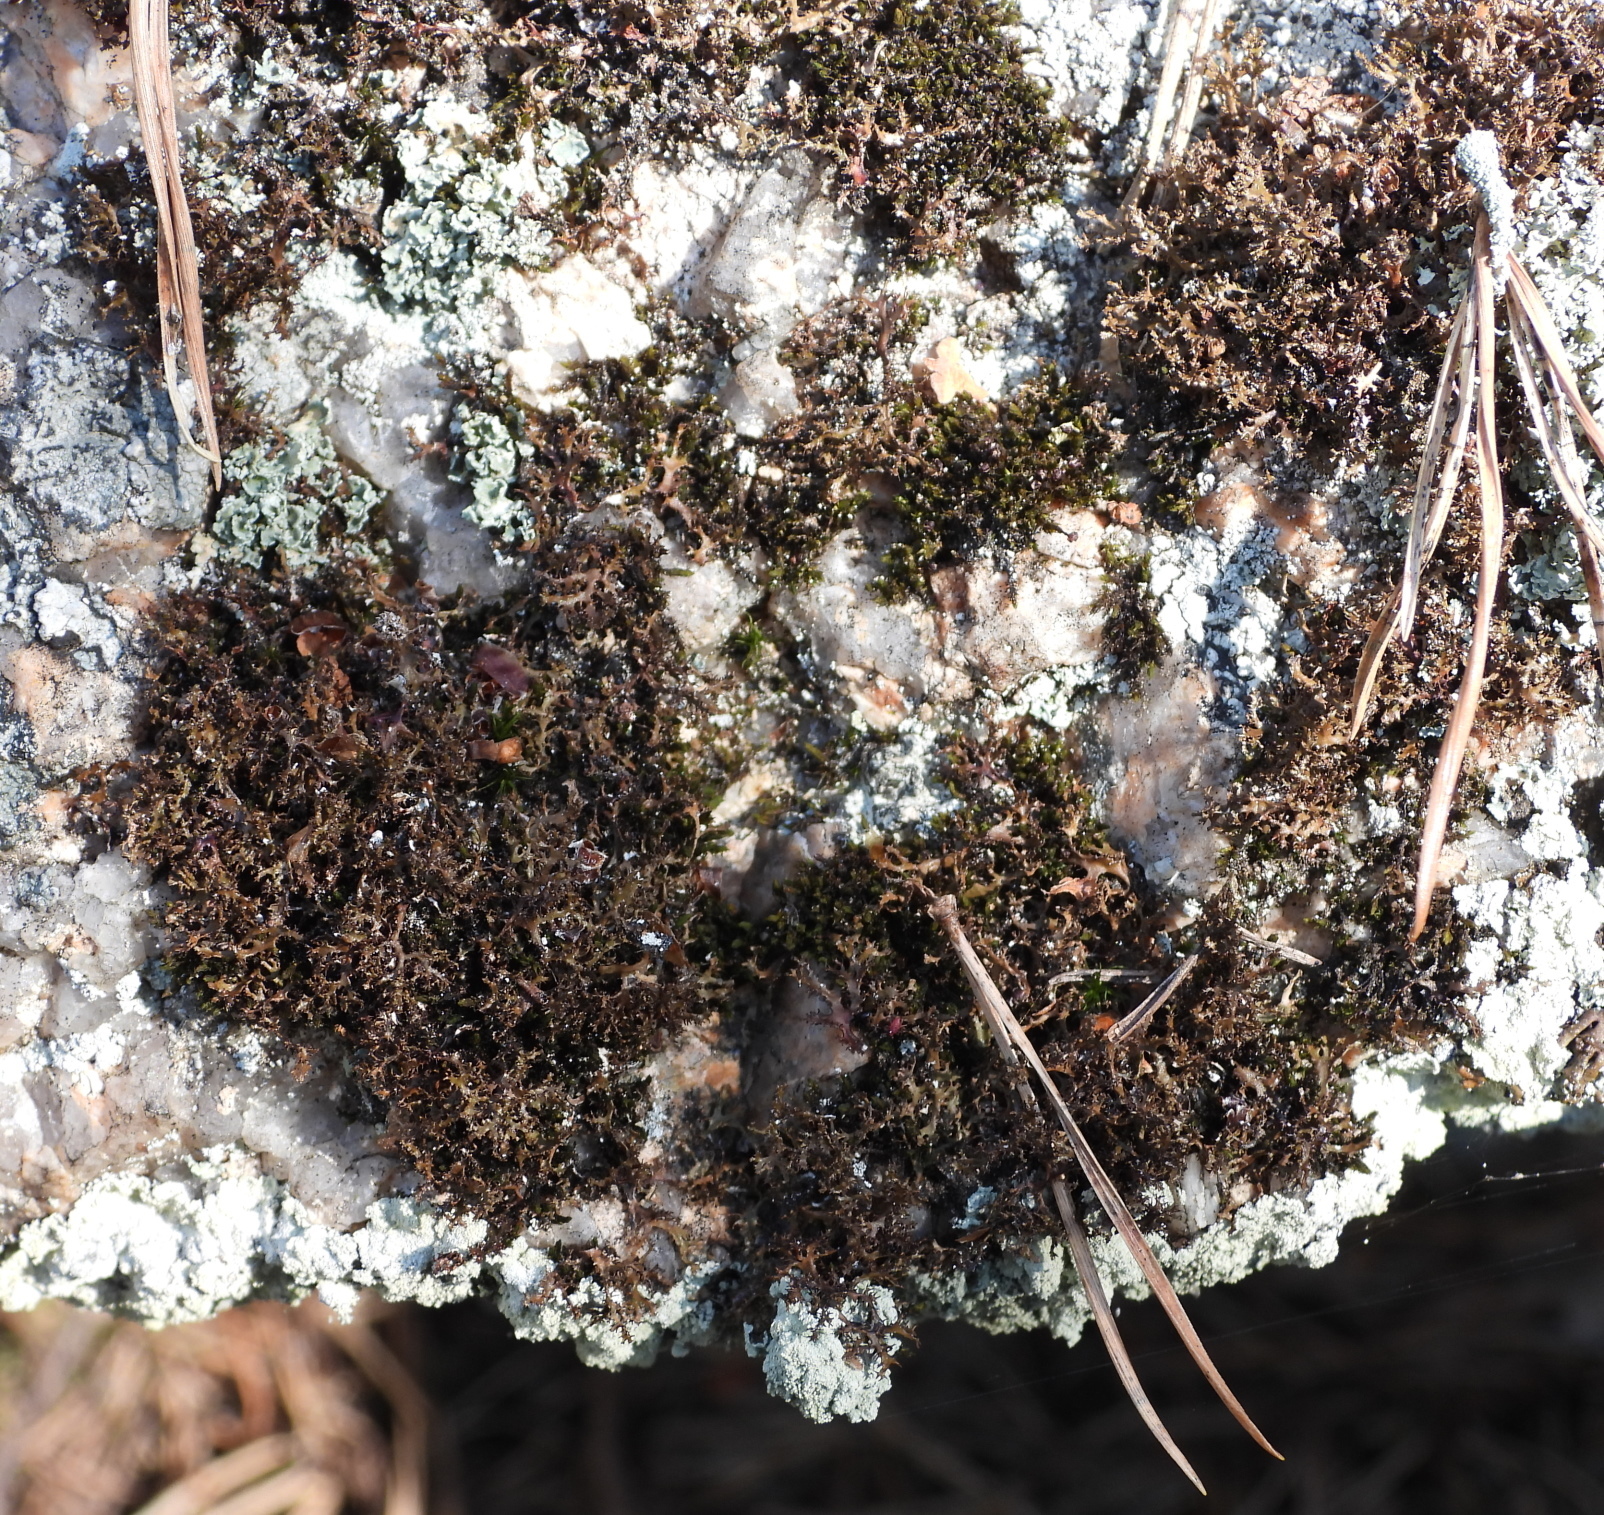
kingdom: Fungi
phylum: Ascomycota
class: Lecanoromycetes
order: Lecanorales
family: Parmeliaceae
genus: Cetraria
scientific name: Cetraria odontella
